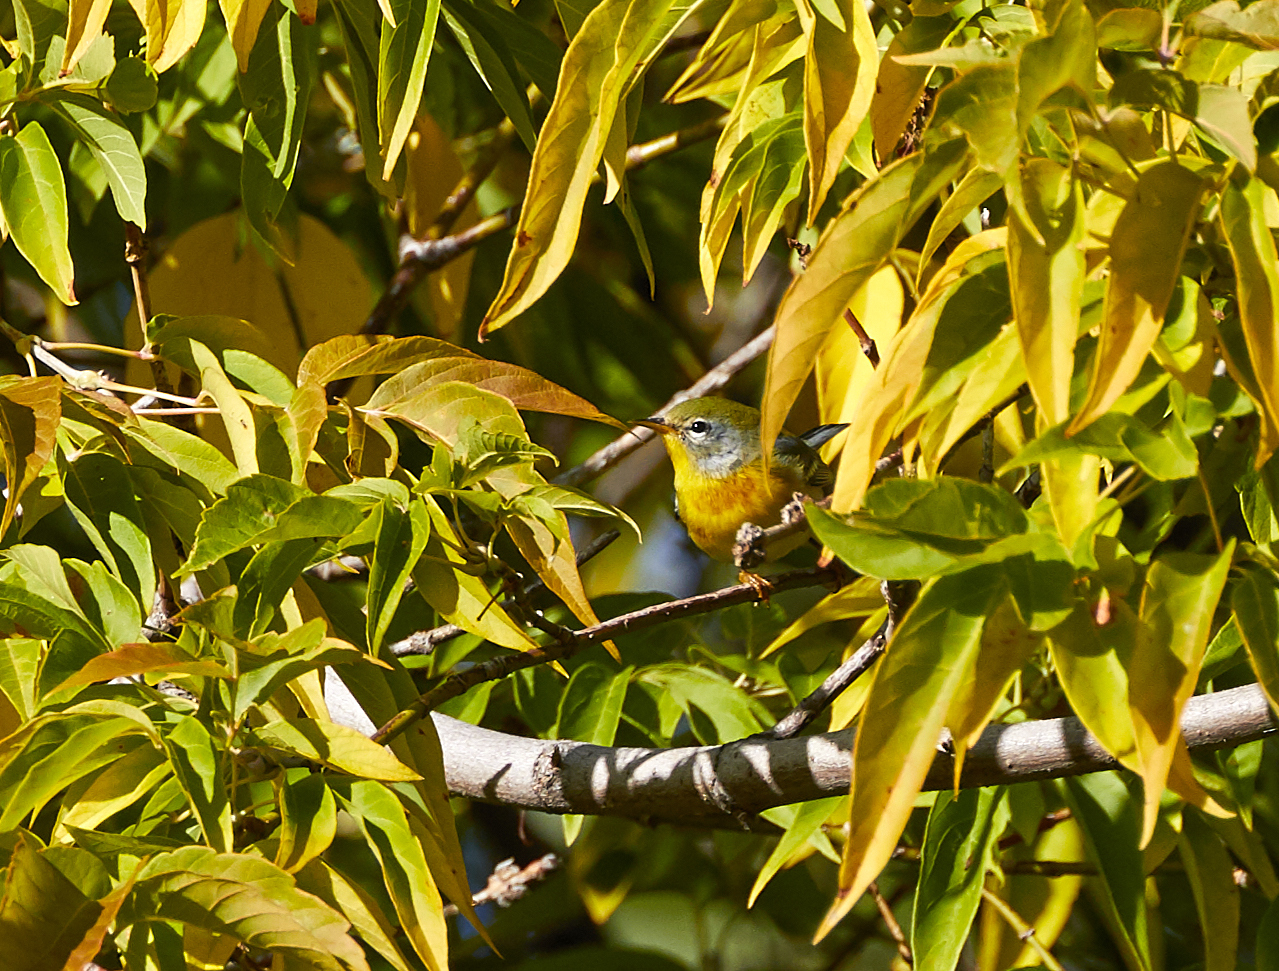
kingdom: Animalia
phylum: Chordata
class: Aves
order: Passeriformes
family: Parulidae
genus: Setophaga
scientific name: Setophaga americana
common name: Northern parula
